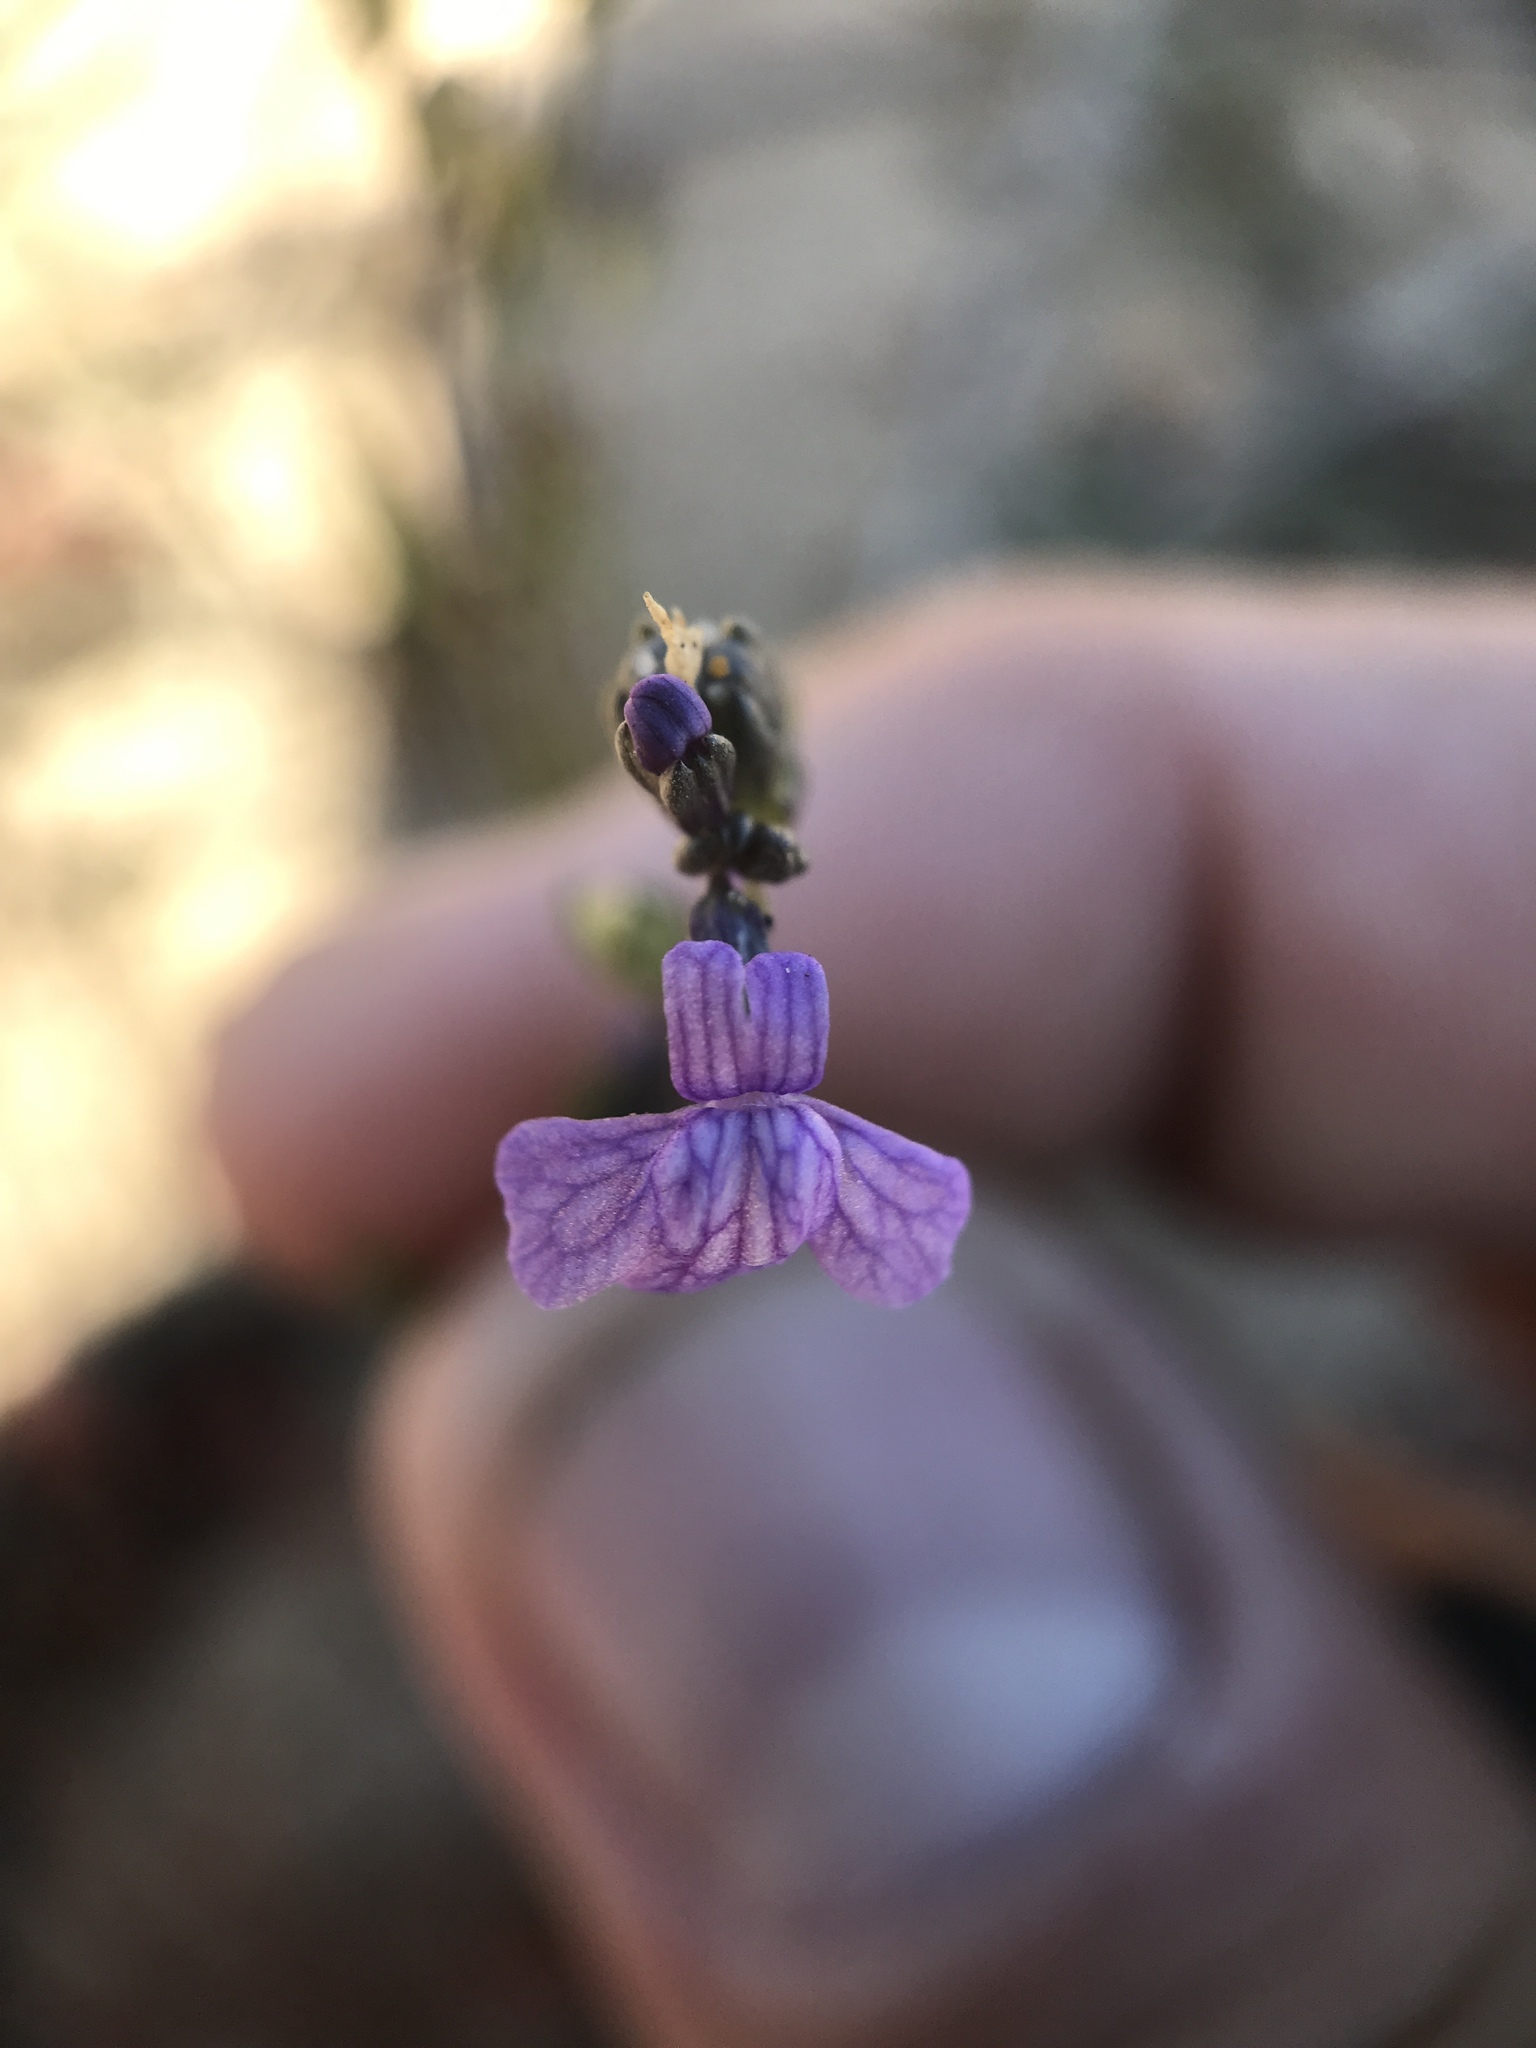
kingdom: Plantae
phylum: Tracheophyta
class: Magnoliopsida
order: Lamiales
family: Plantaginaceae
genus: Nuttallanthus
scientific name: Nuttallanthus texanus
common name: Texas toadflax
